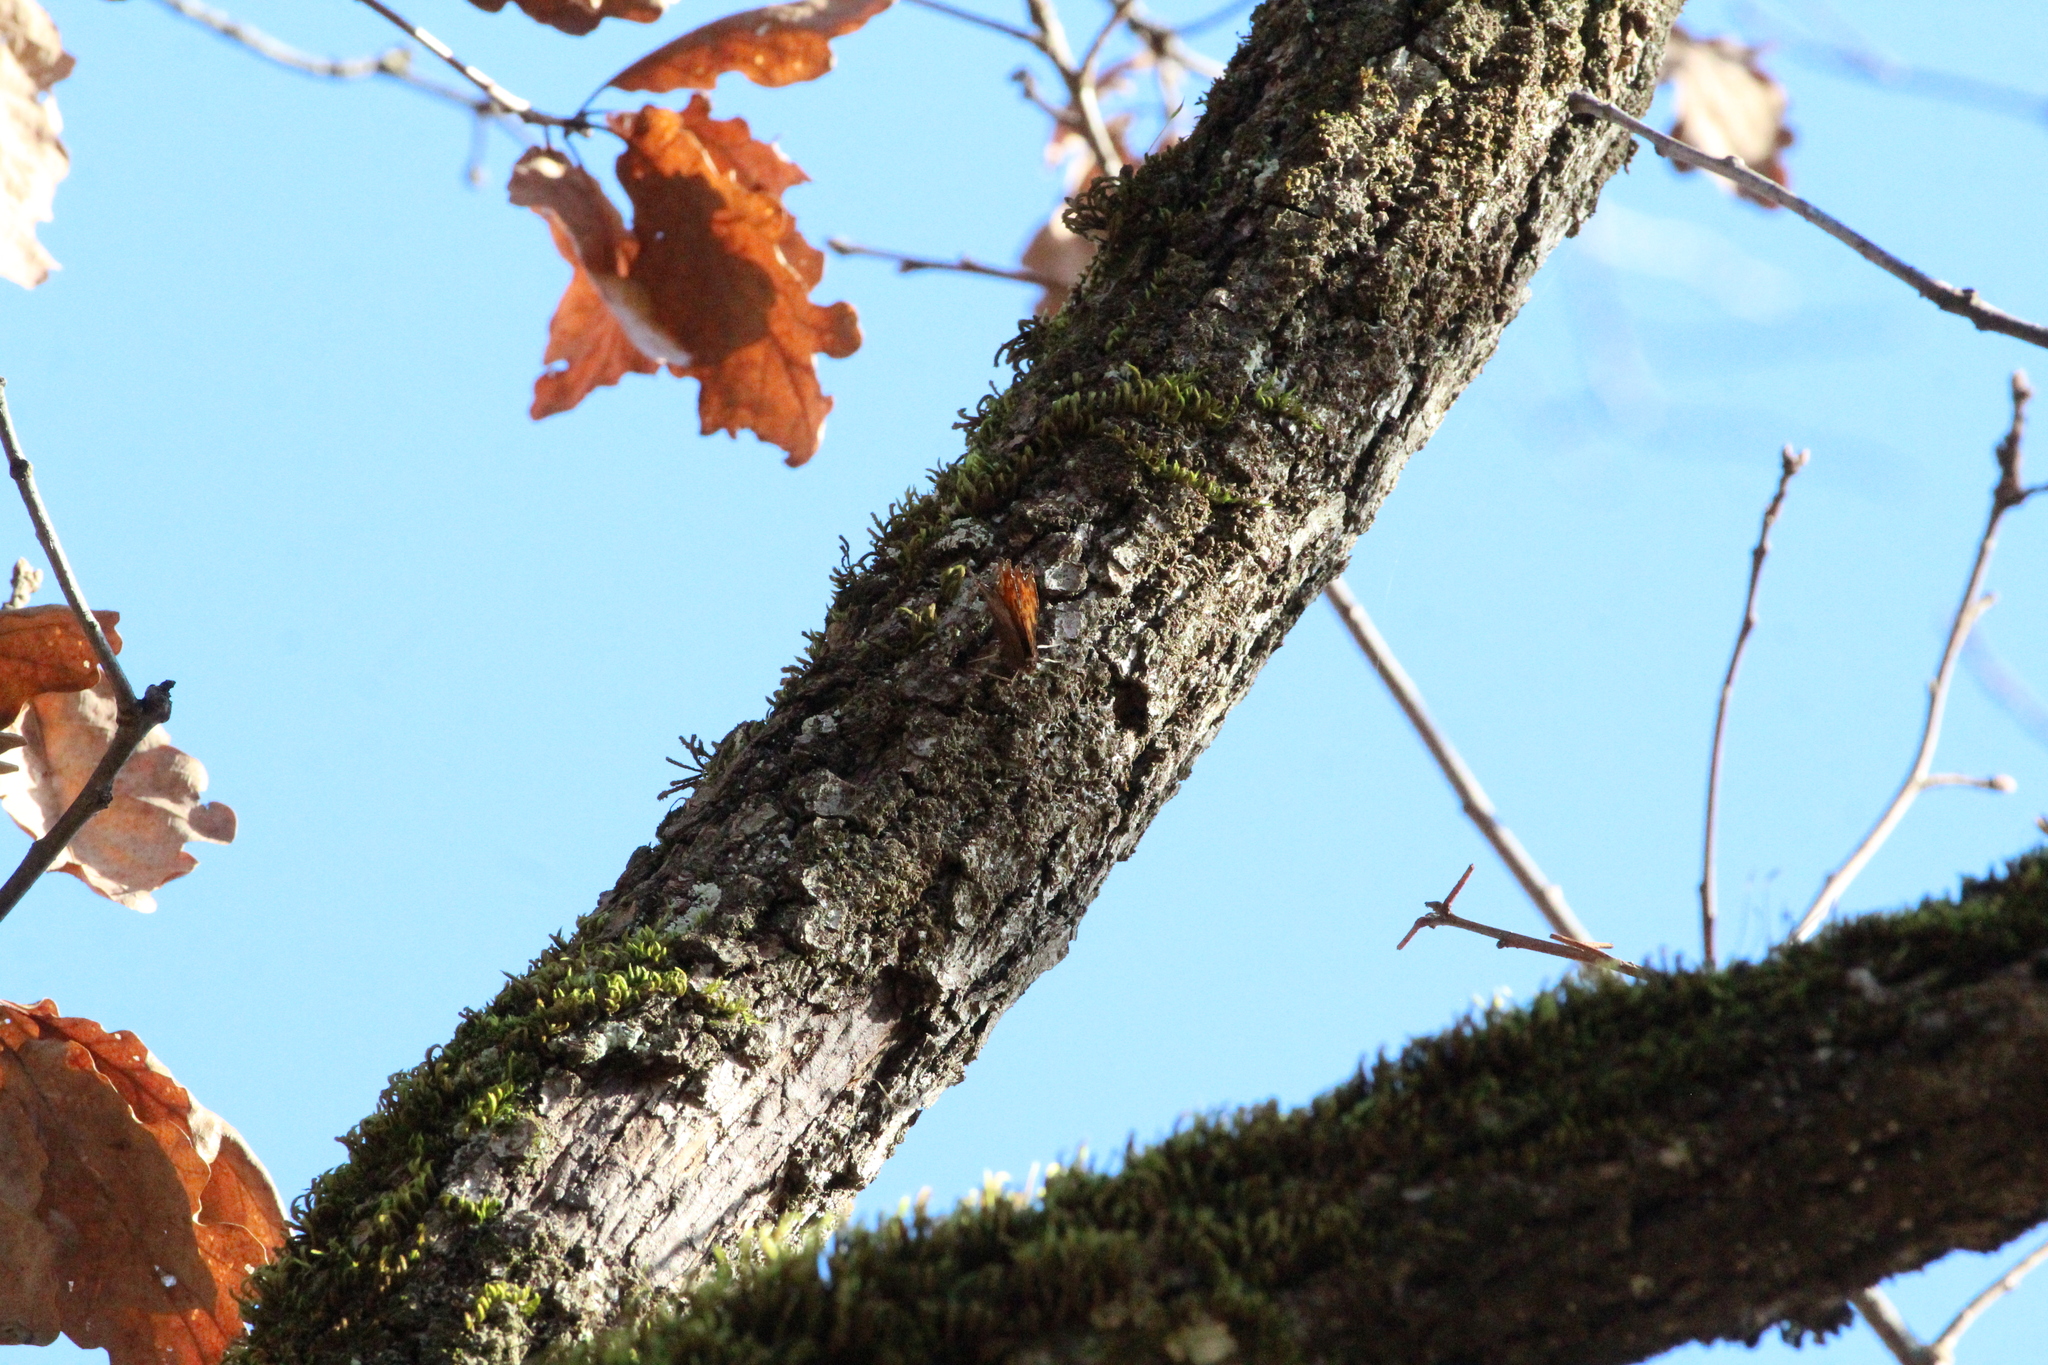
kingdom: Animalia
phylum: Arthropoda
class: Insecta
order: Lepidoptera
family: Nymphalidae
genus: Polygonia
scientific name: Polygonia c-album
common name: Comma
